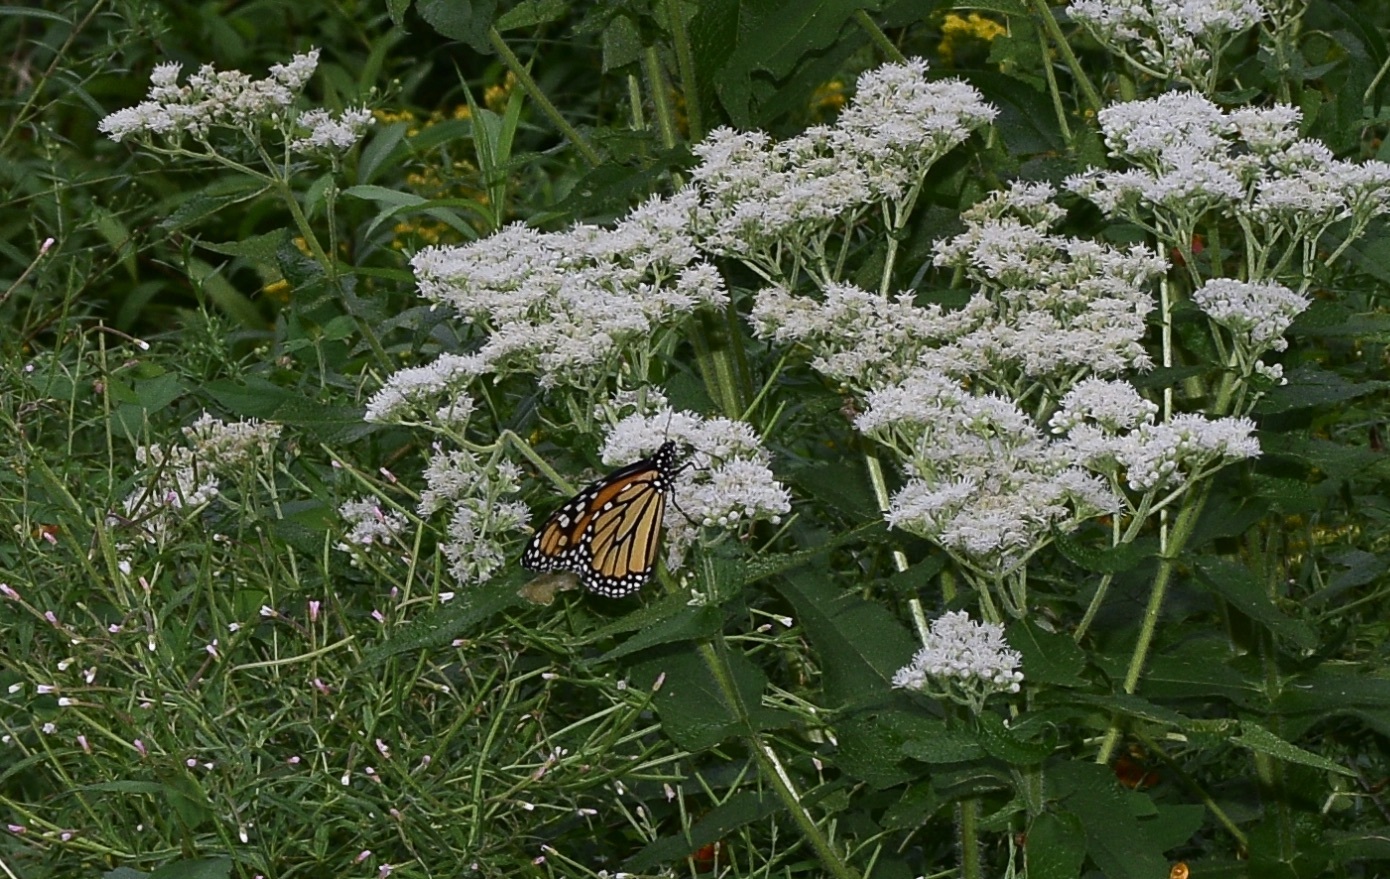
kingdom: Animalia
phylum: Arthropoda
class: Insecta
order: Lepidoptera
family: Nymphalidae
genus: Danaus
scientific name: Danaus plexippus
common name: Monarch
